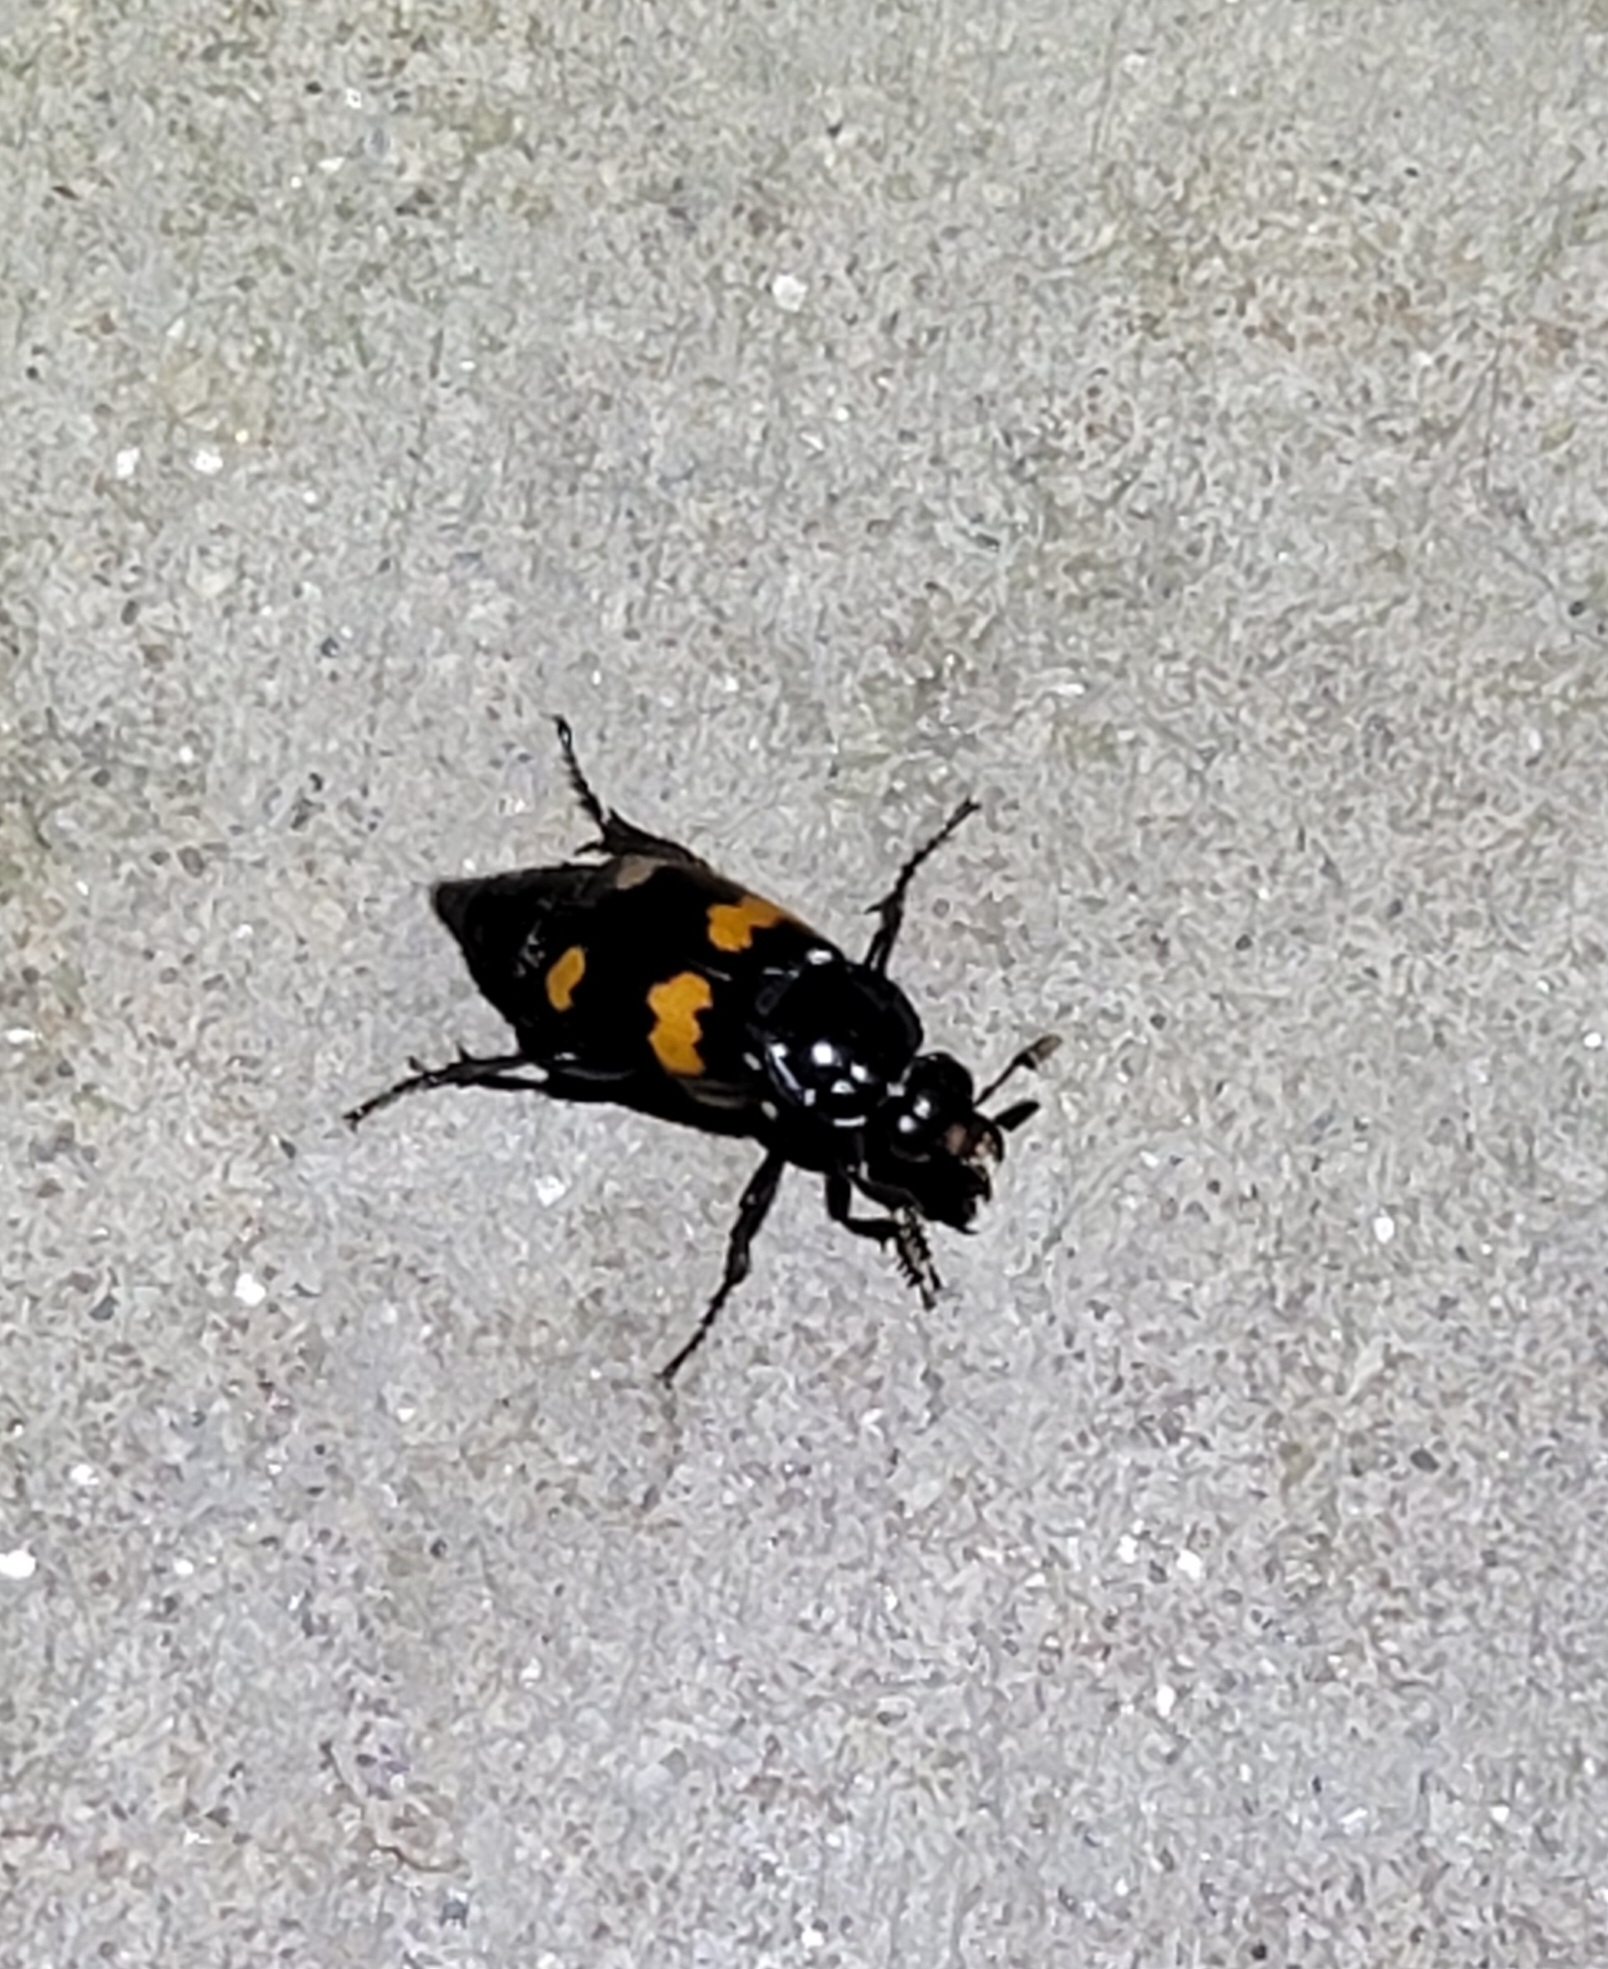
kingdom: Animalia
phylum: Arthropoda
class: Insecta
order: Coleoptera
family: Staphylinidae
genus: Nicrophorus
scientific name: Nicrophorus orbicollis
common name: Roundneck sexton beetle
